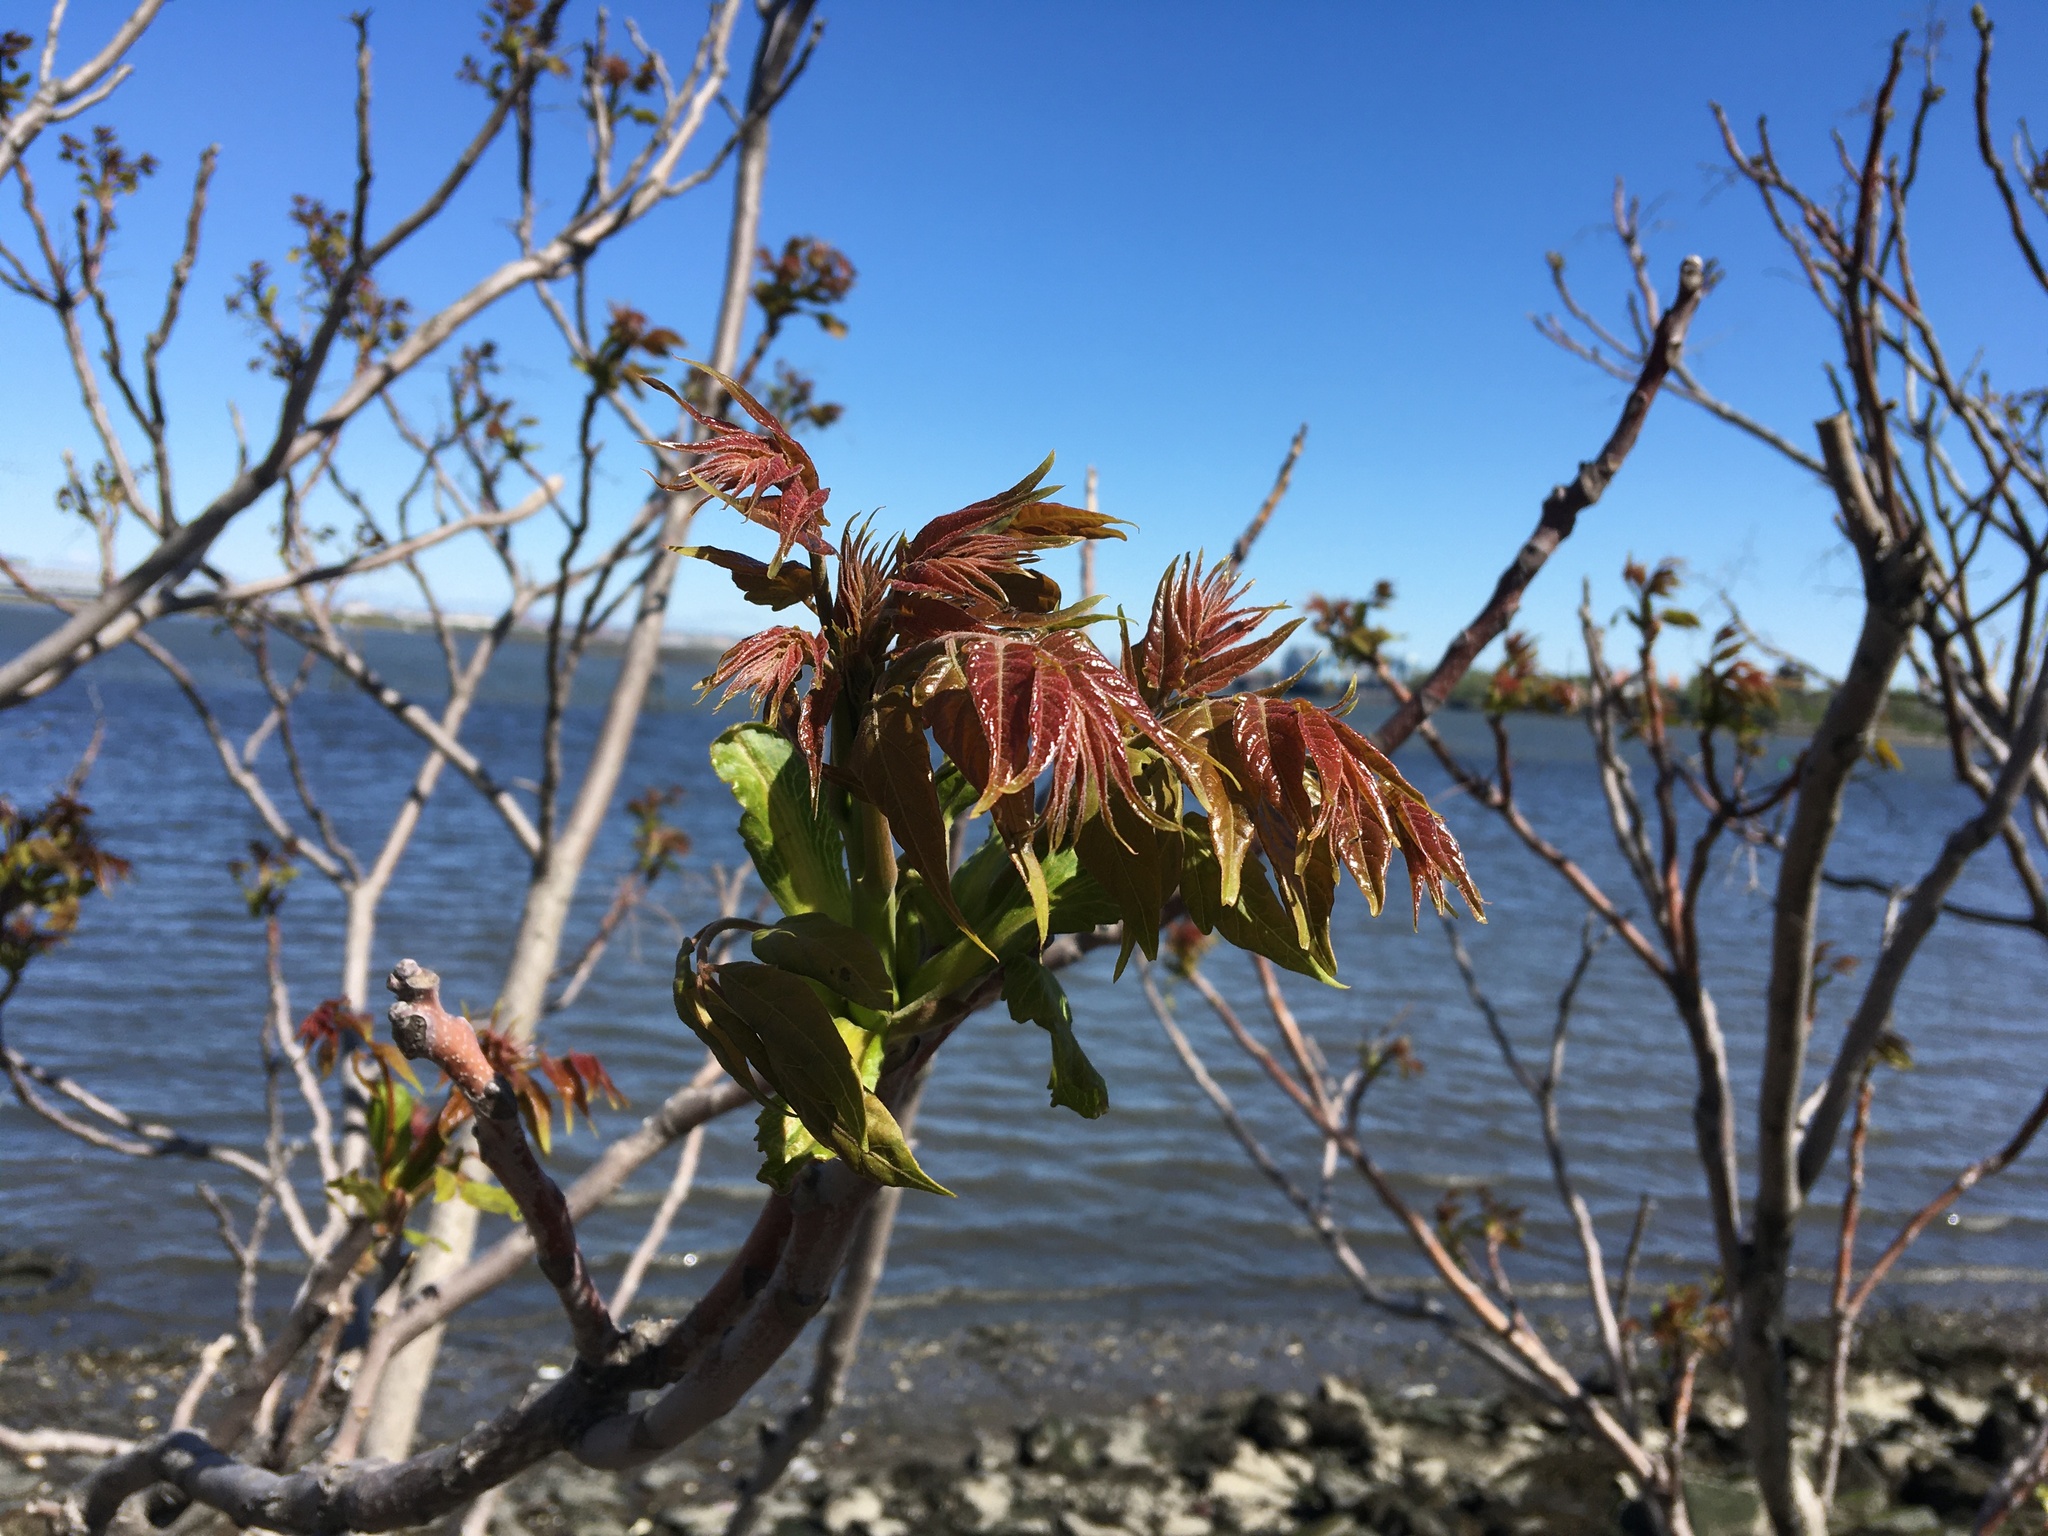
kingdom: Plantae
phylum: Tracheophyta
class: Magnoliopsida
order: Sapindales
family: Simaroubaceae
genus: Ailanthus
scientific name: Ailanthus altissima
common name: Tree-of-heaven
